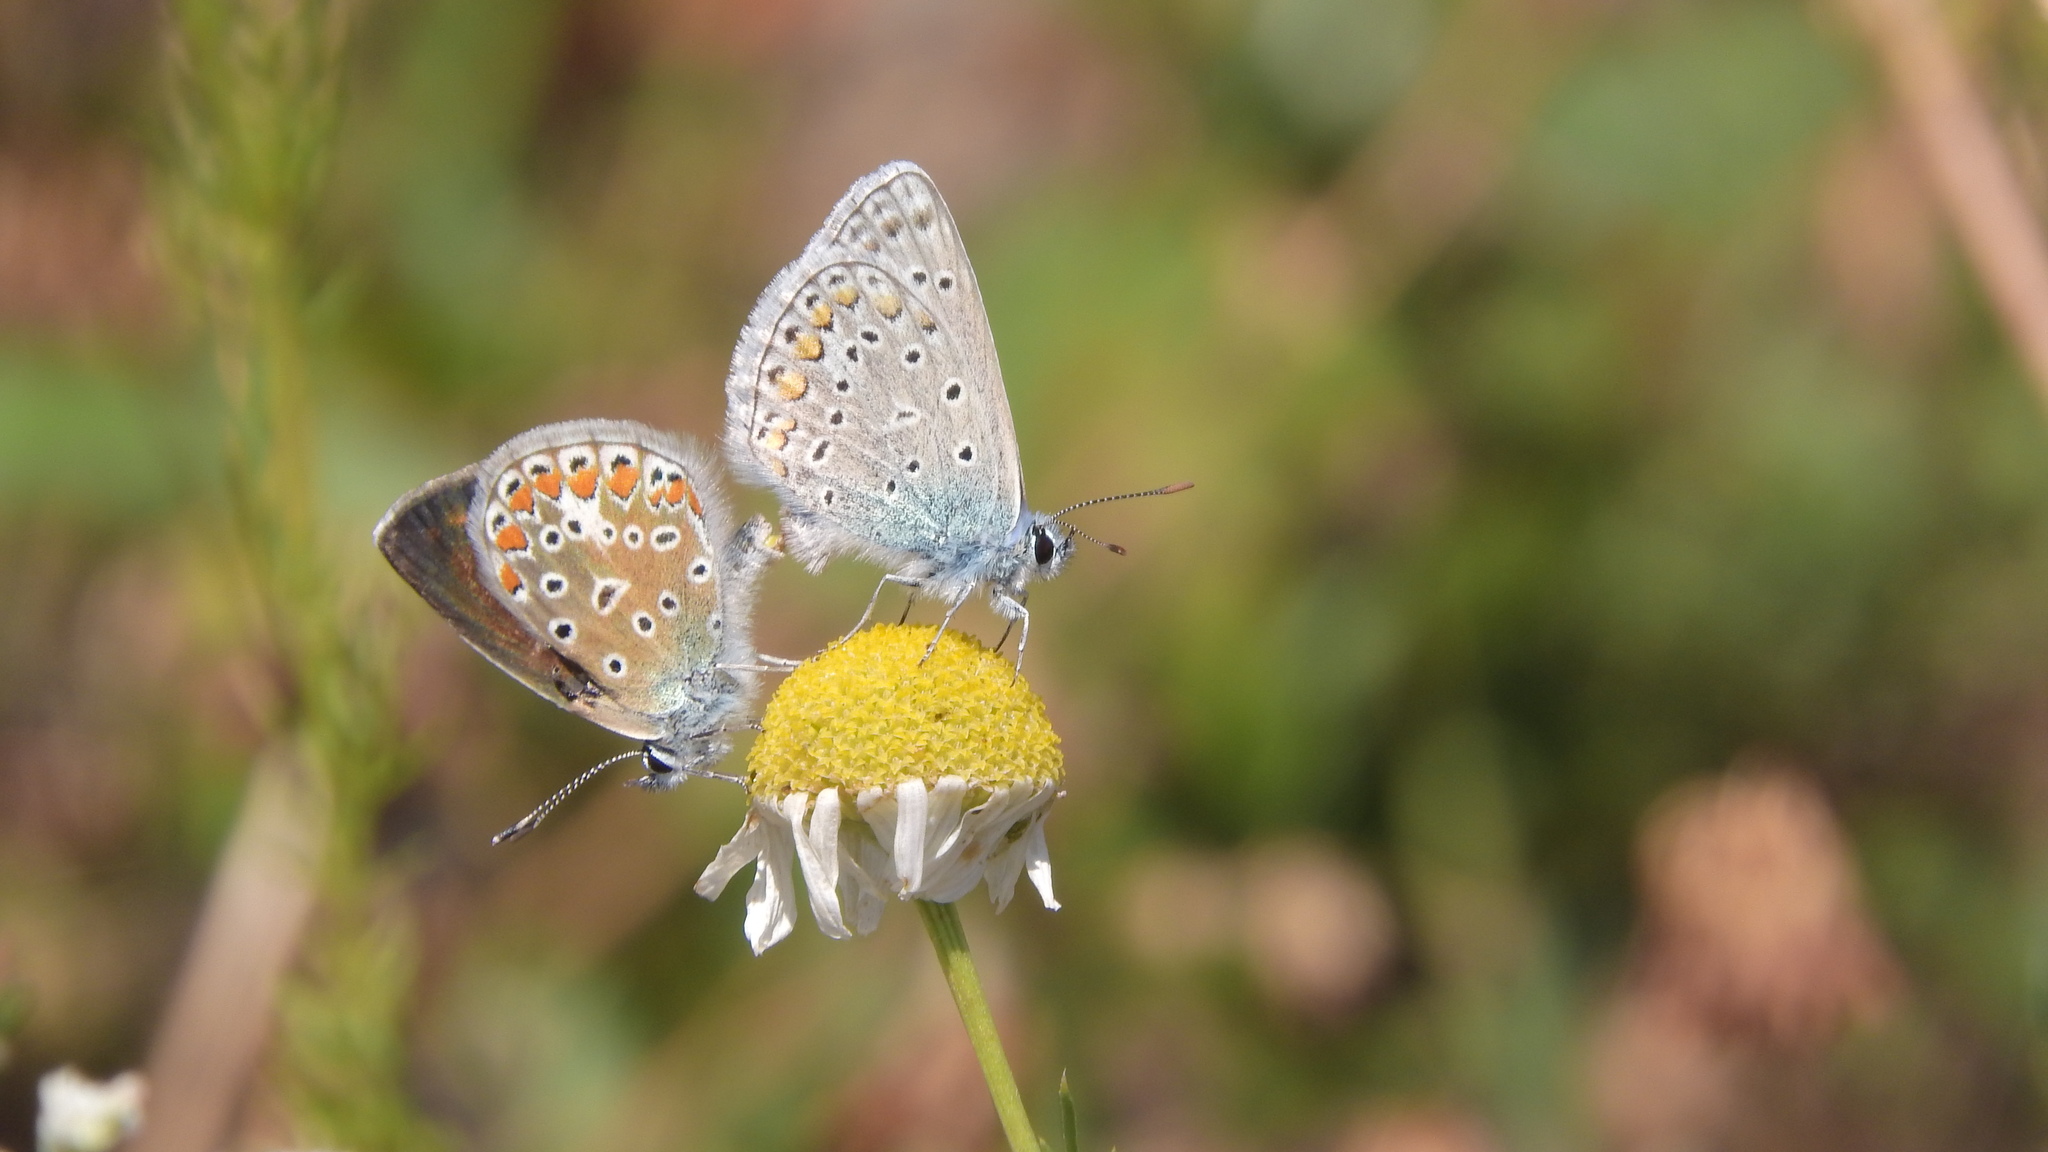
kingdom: Animalia
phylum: Arthropoda
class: Insecta
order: Lepidoptera
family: Lycaenidae
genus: Polyommatus
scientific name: Polyommatus icarus
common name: Common blue
